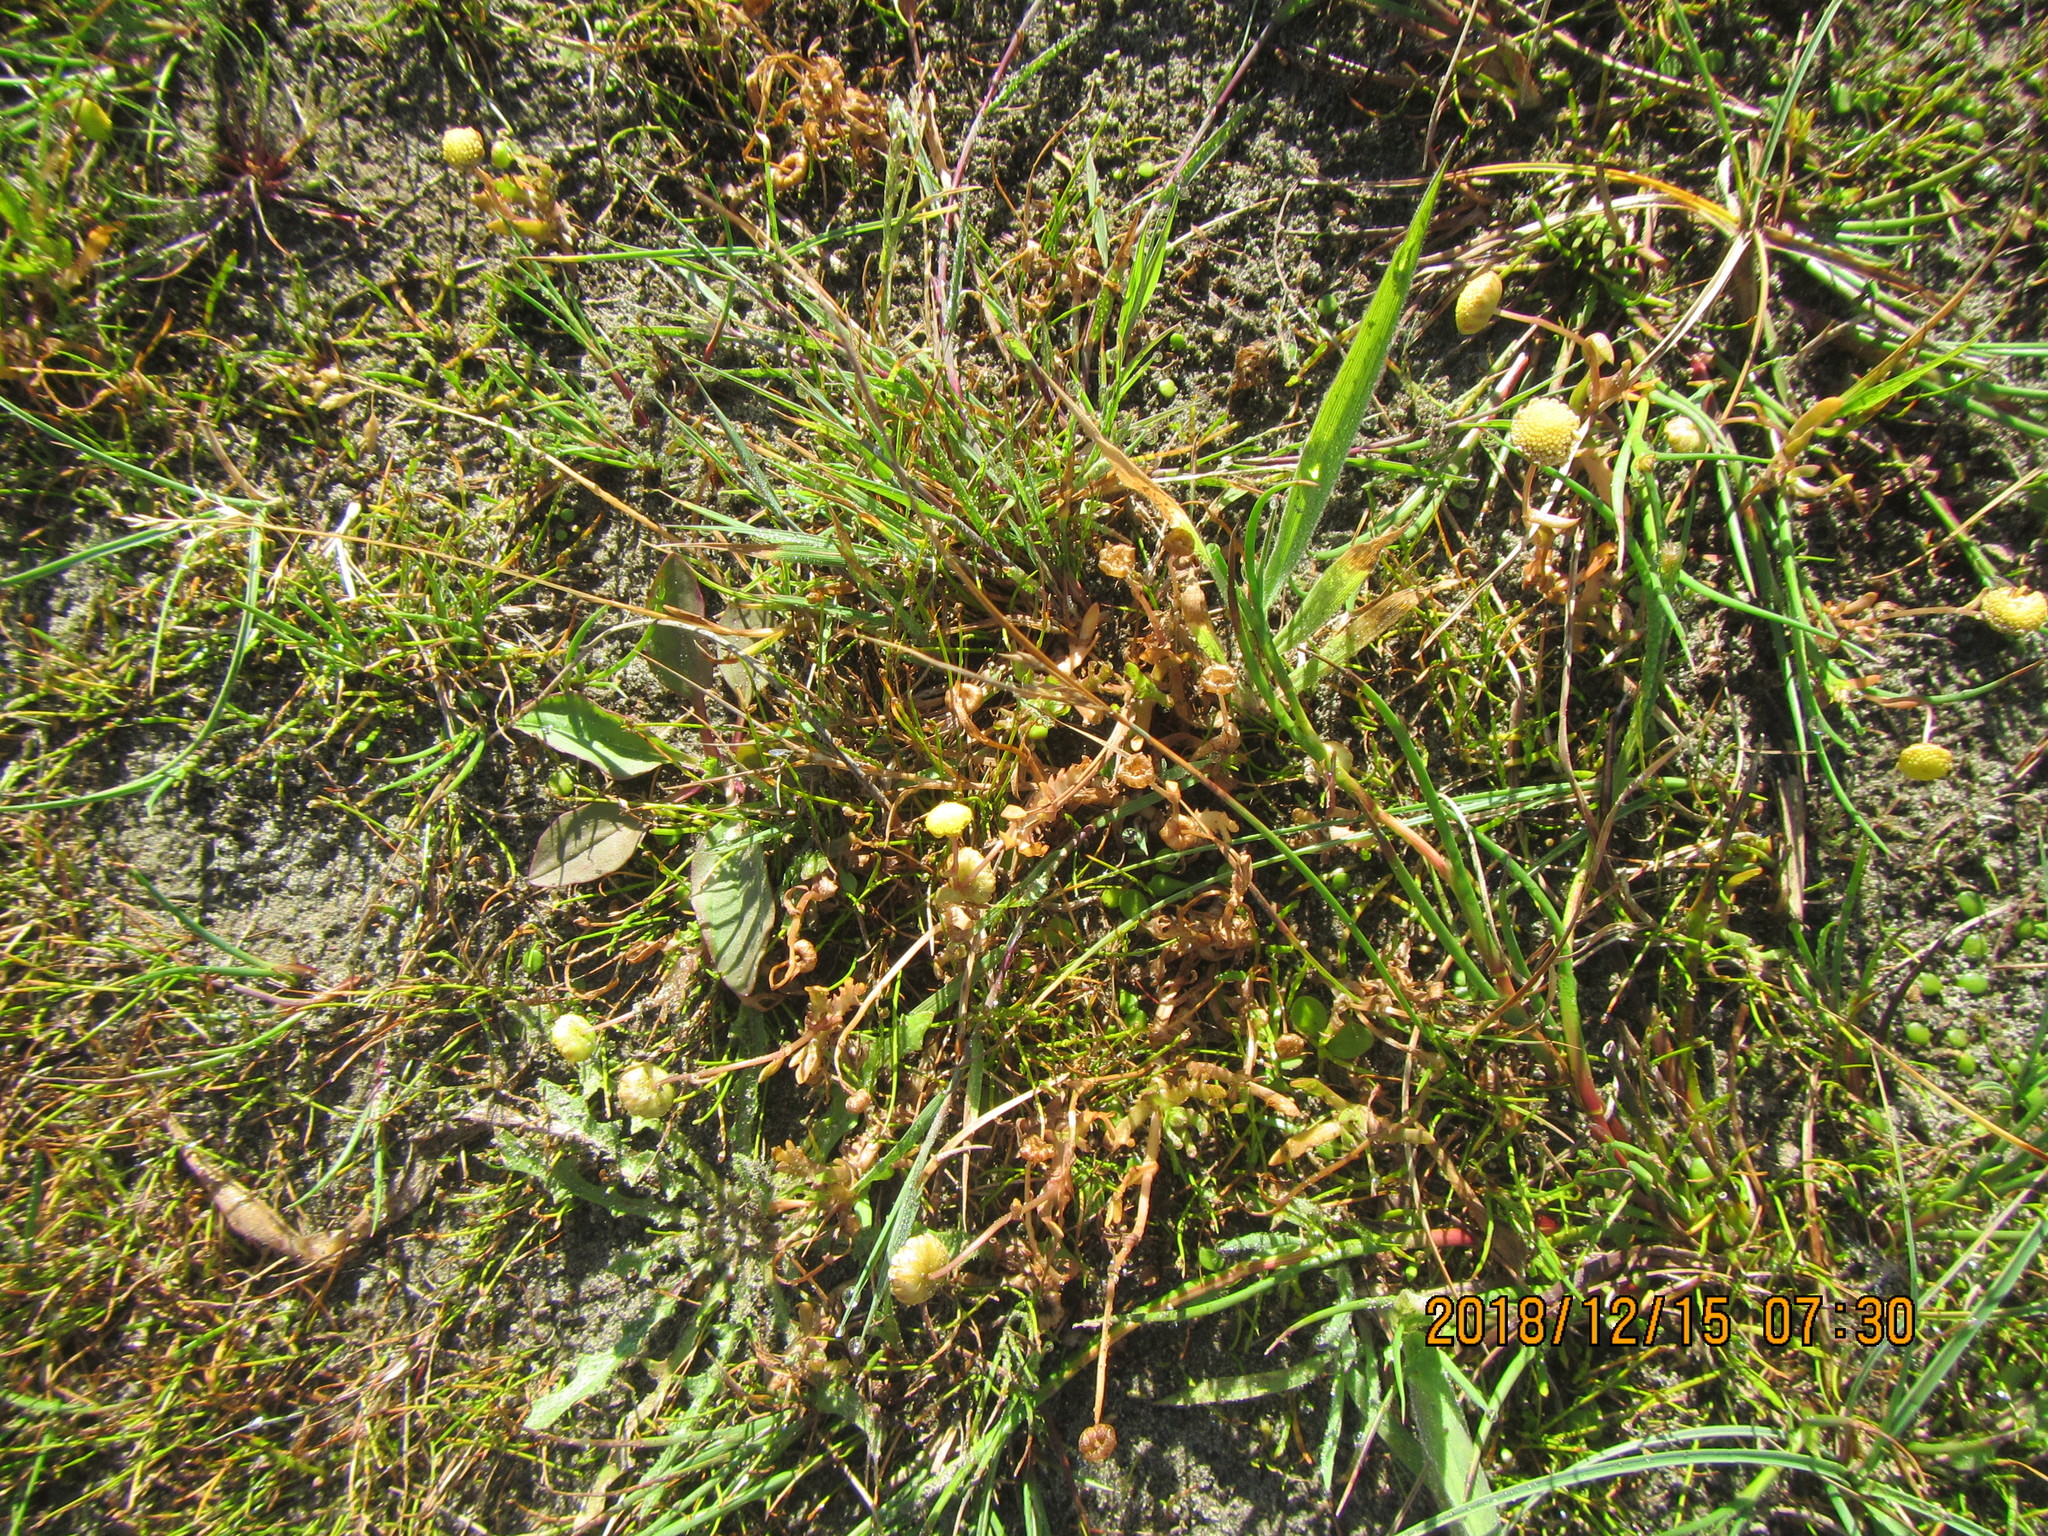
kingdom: Plantae
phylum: Tracheophyta
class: Magnoliopsida
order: Asterales
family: Asteraceae
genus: Cotula
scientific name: Cotula coronopifolia
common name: Buttonweed
